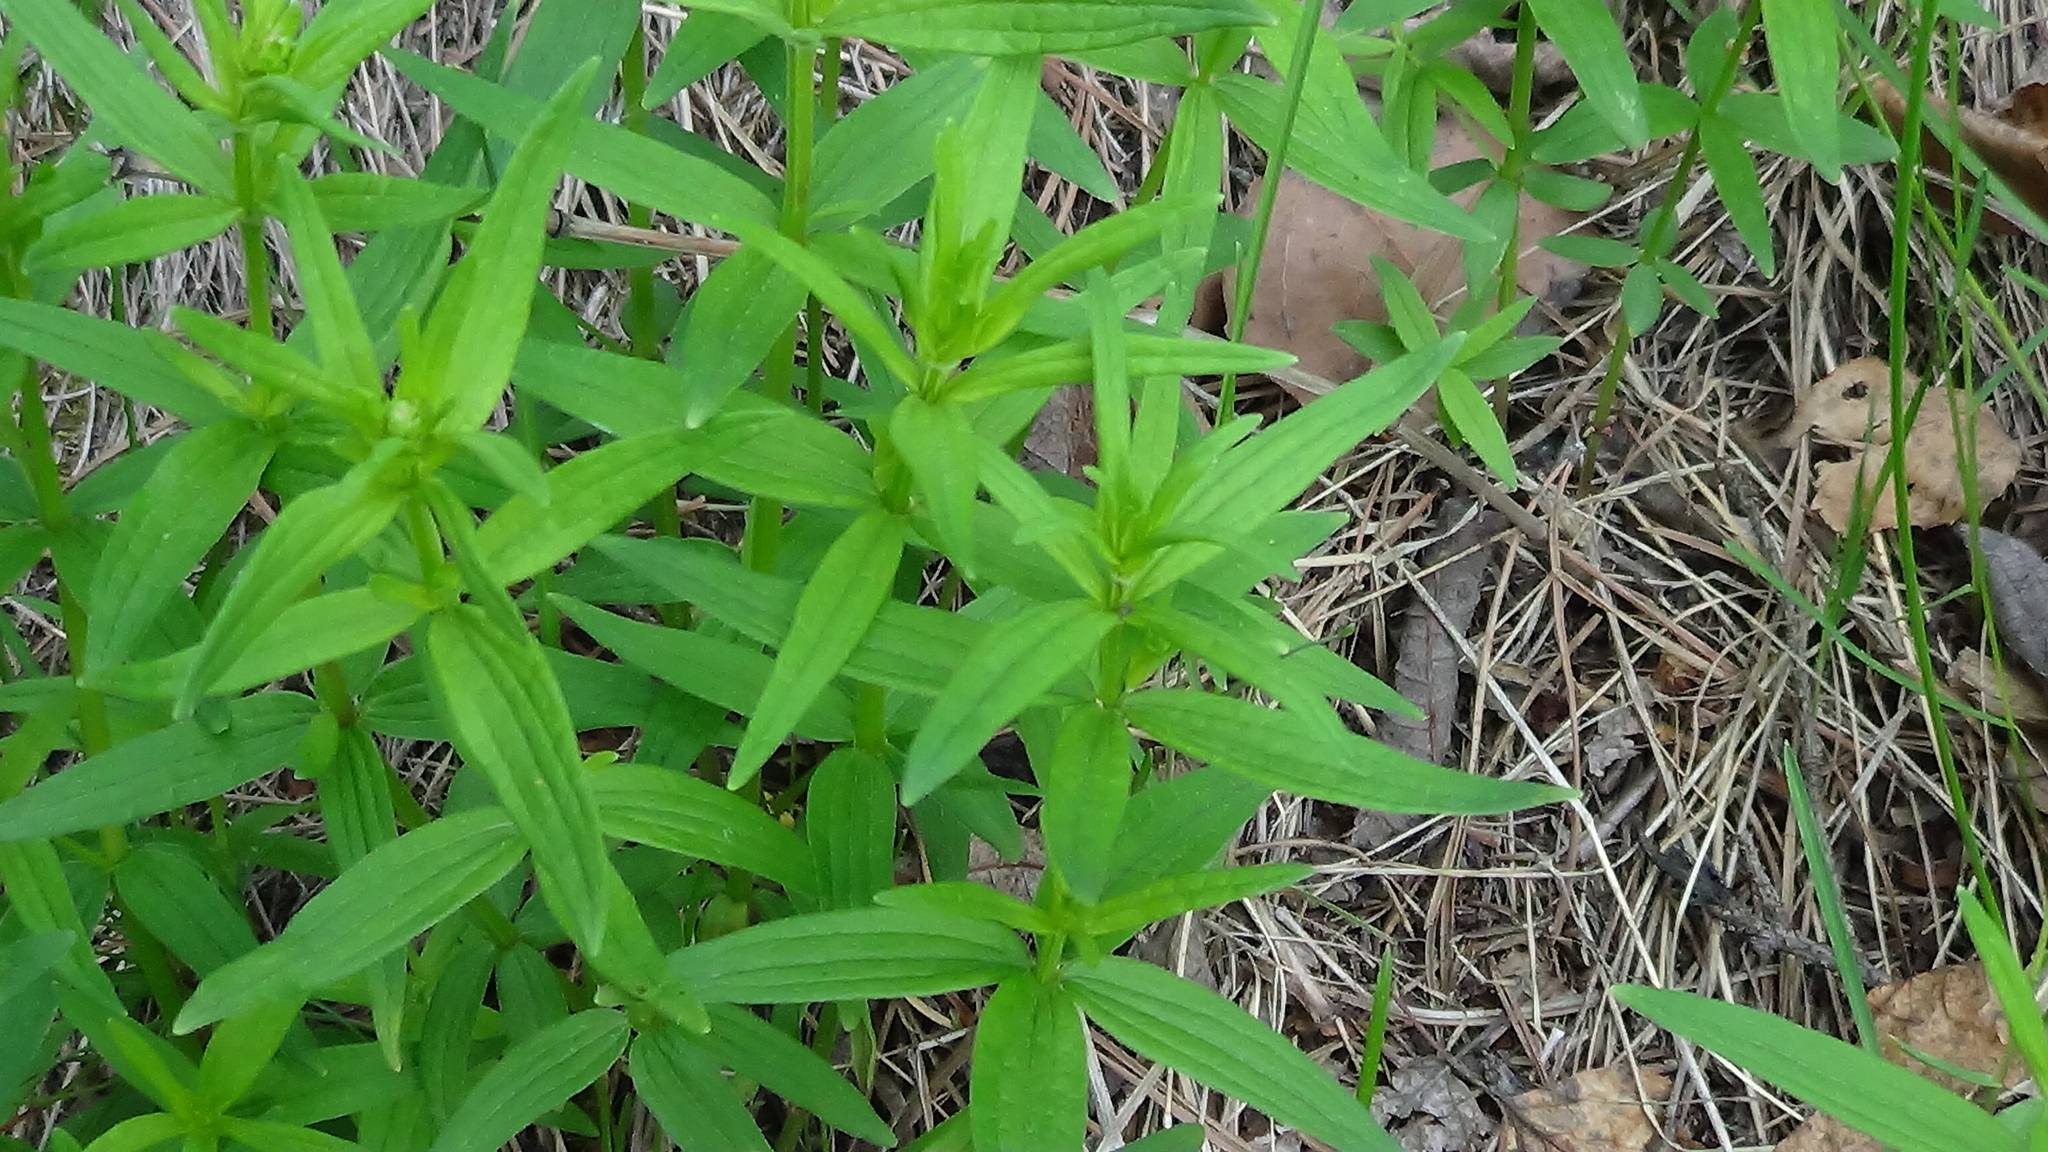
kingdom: Plantae
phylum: Tracheophyta
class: Magnoliopsida
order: Gentianales
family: Rubiaceae
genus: Galium
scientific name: Galium boreale
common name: Northern bedstraw
